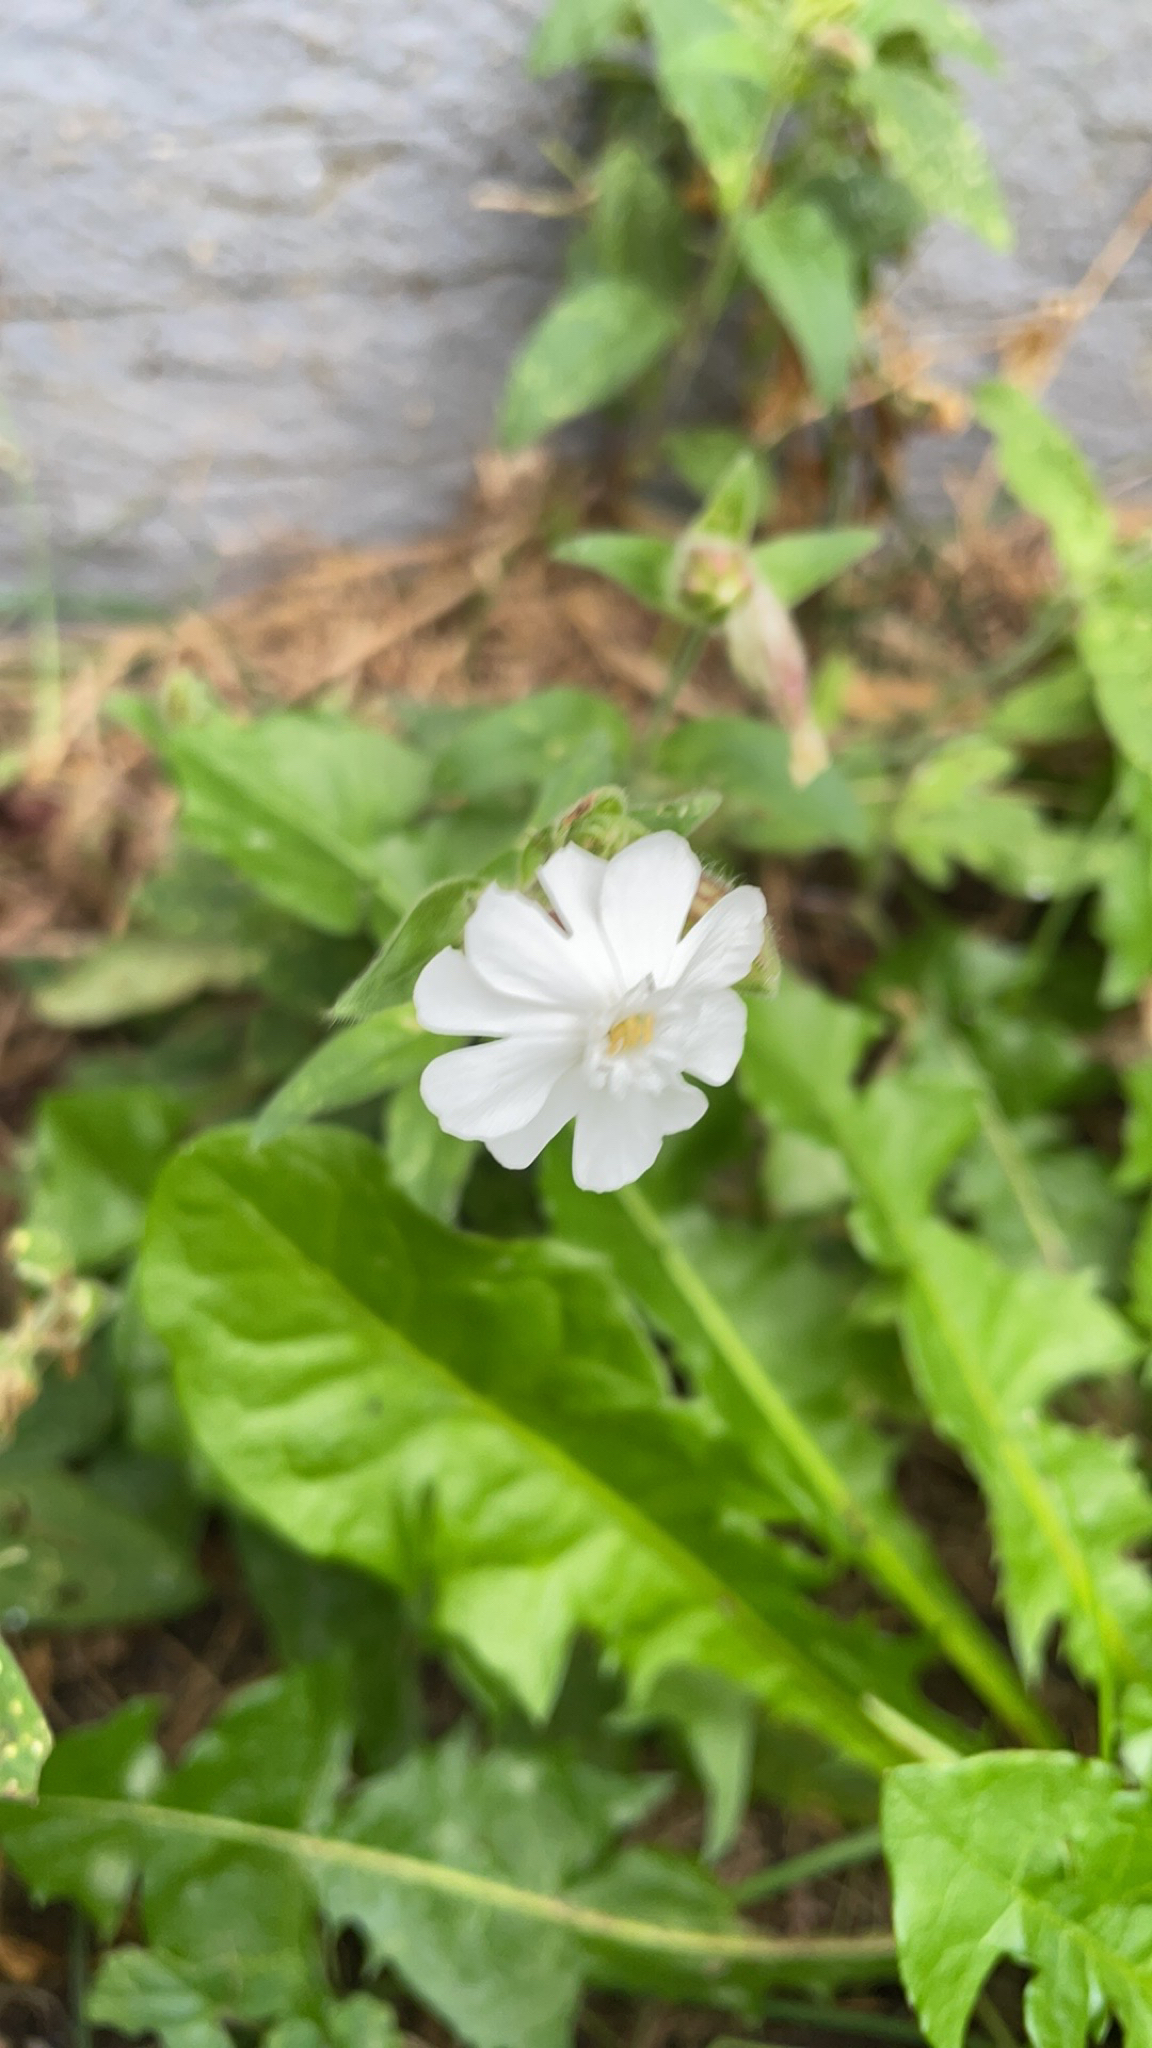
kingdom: Plantae
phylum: Tracheophyta
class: Magnoliopsida
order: Caryophyllales
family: Caryophyllaceae
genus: Silene
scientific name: Silene latifolia
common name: White campion
